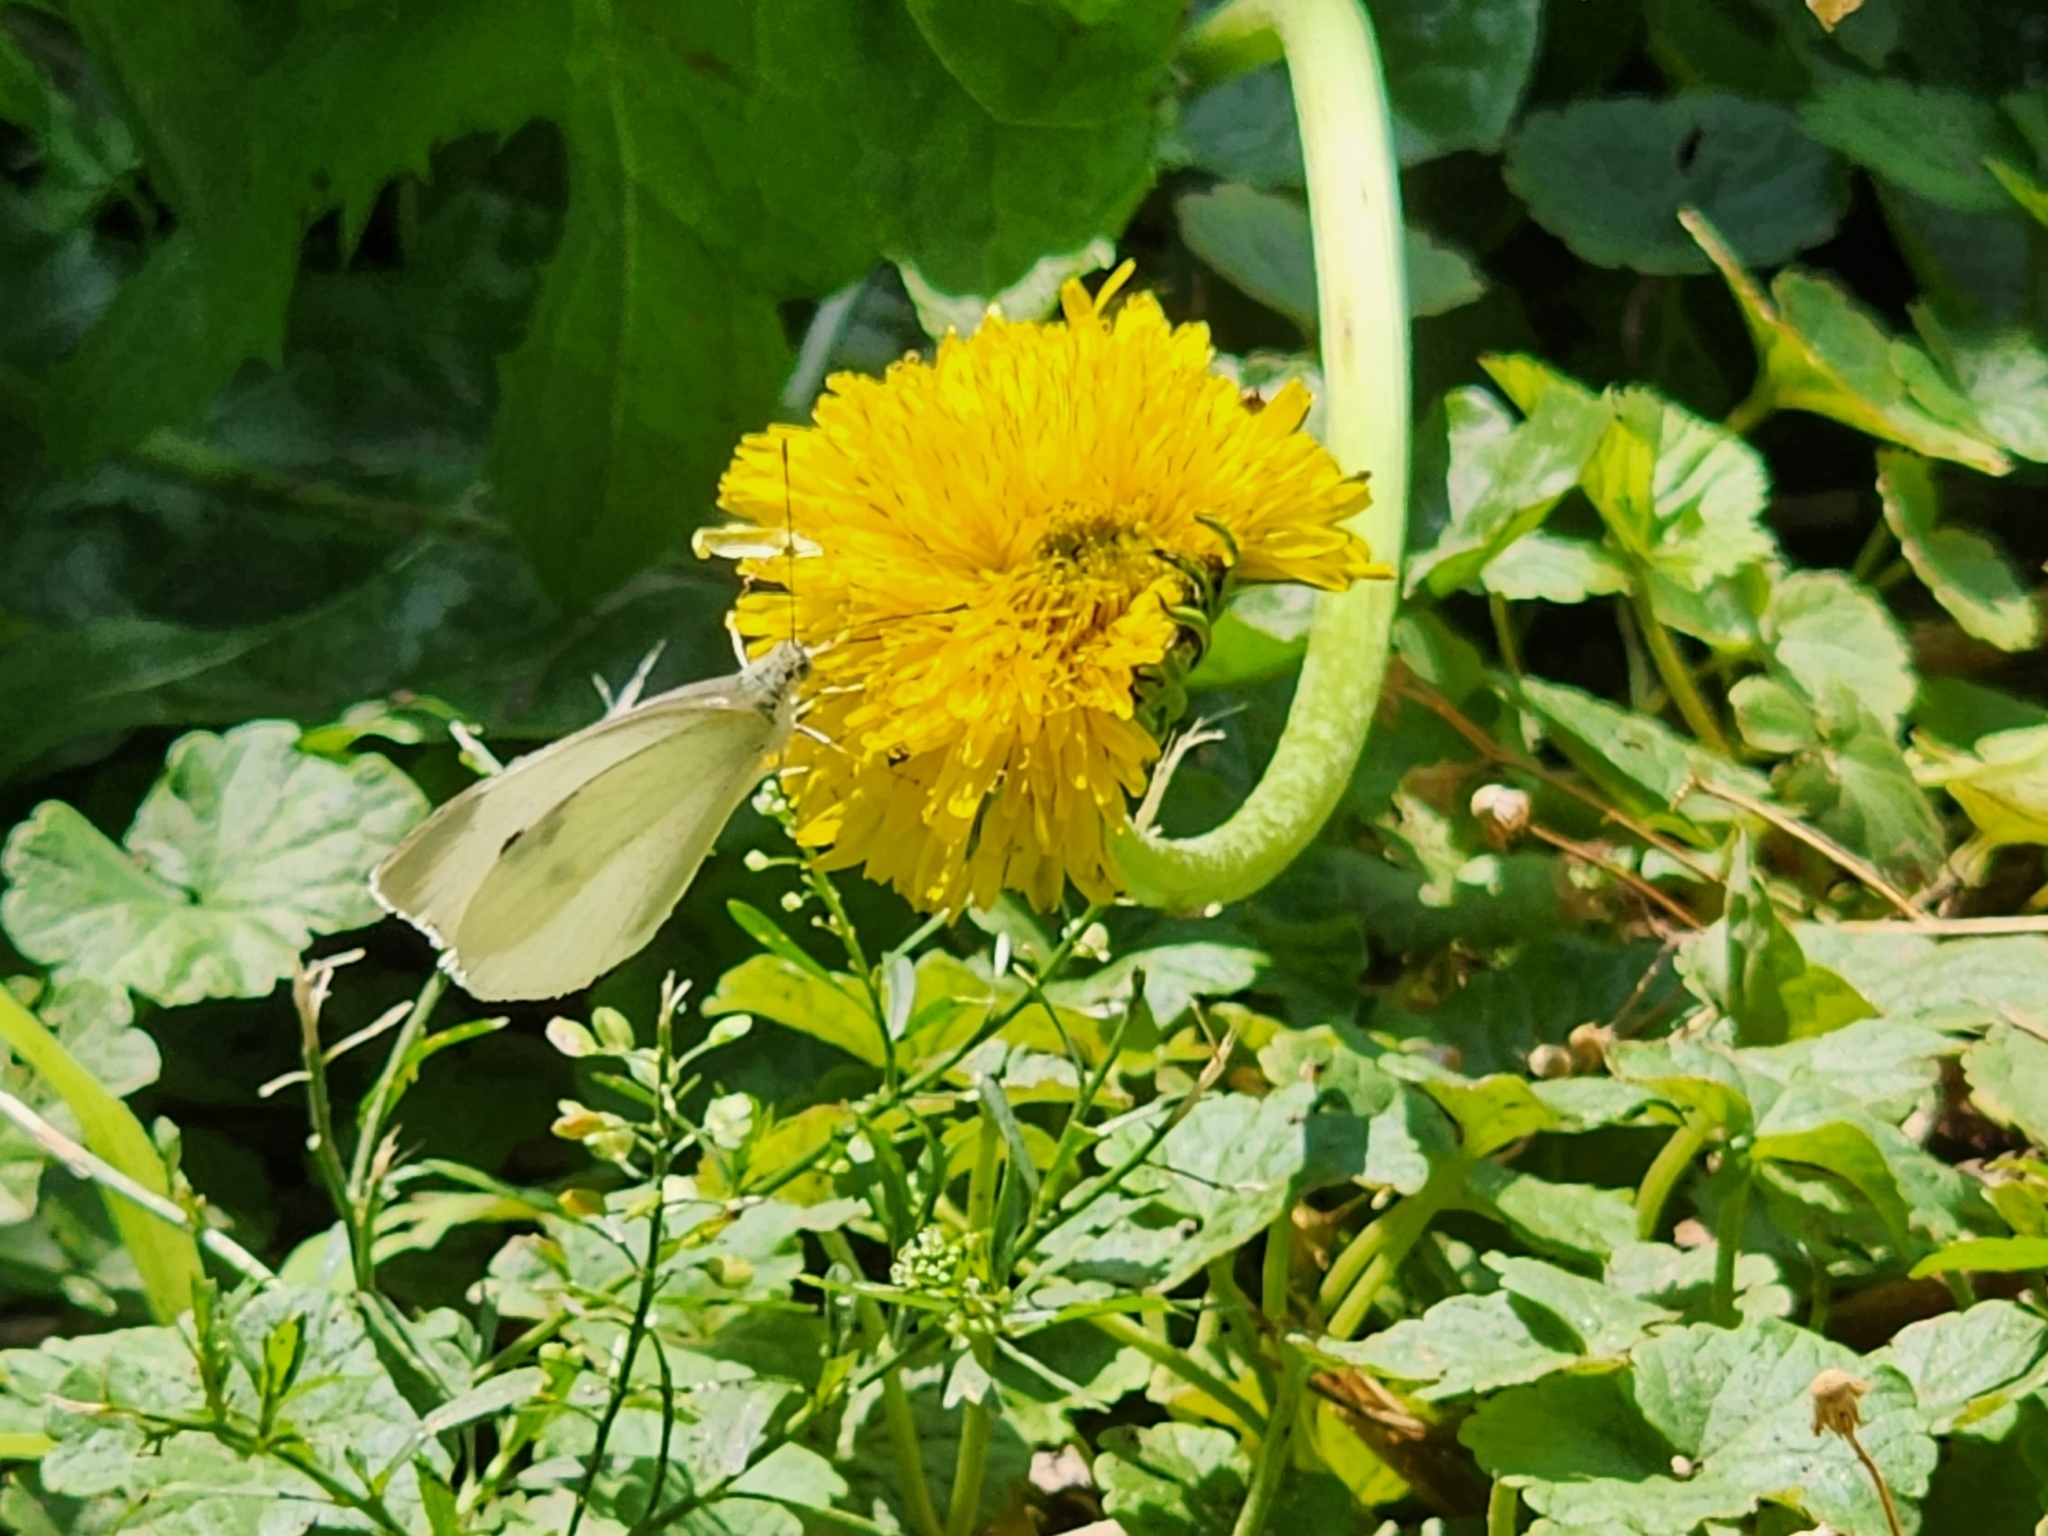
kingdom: Animalia
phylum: Arthropoda
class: Insecta
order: Lepidoptera
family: Pieridae
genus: Pieris
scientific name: Pieris rapae
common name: Small white
